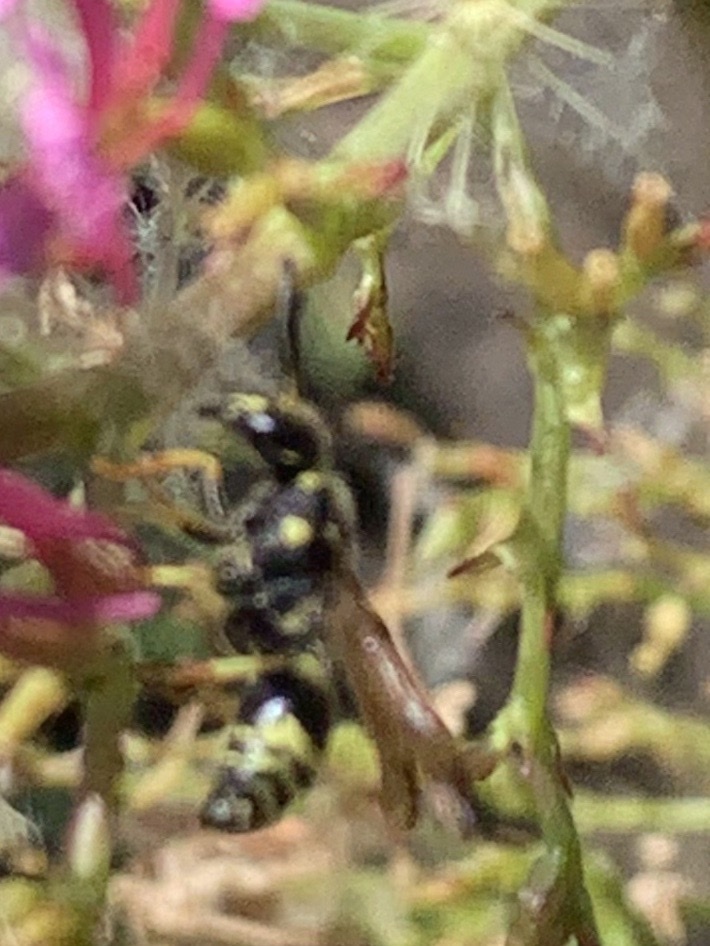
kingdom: Animalia
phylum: Arthropoda
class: Insecta
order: Hymenoptera
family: Vespidae
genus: Ancistrocerus
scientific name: Ancistrocerus
